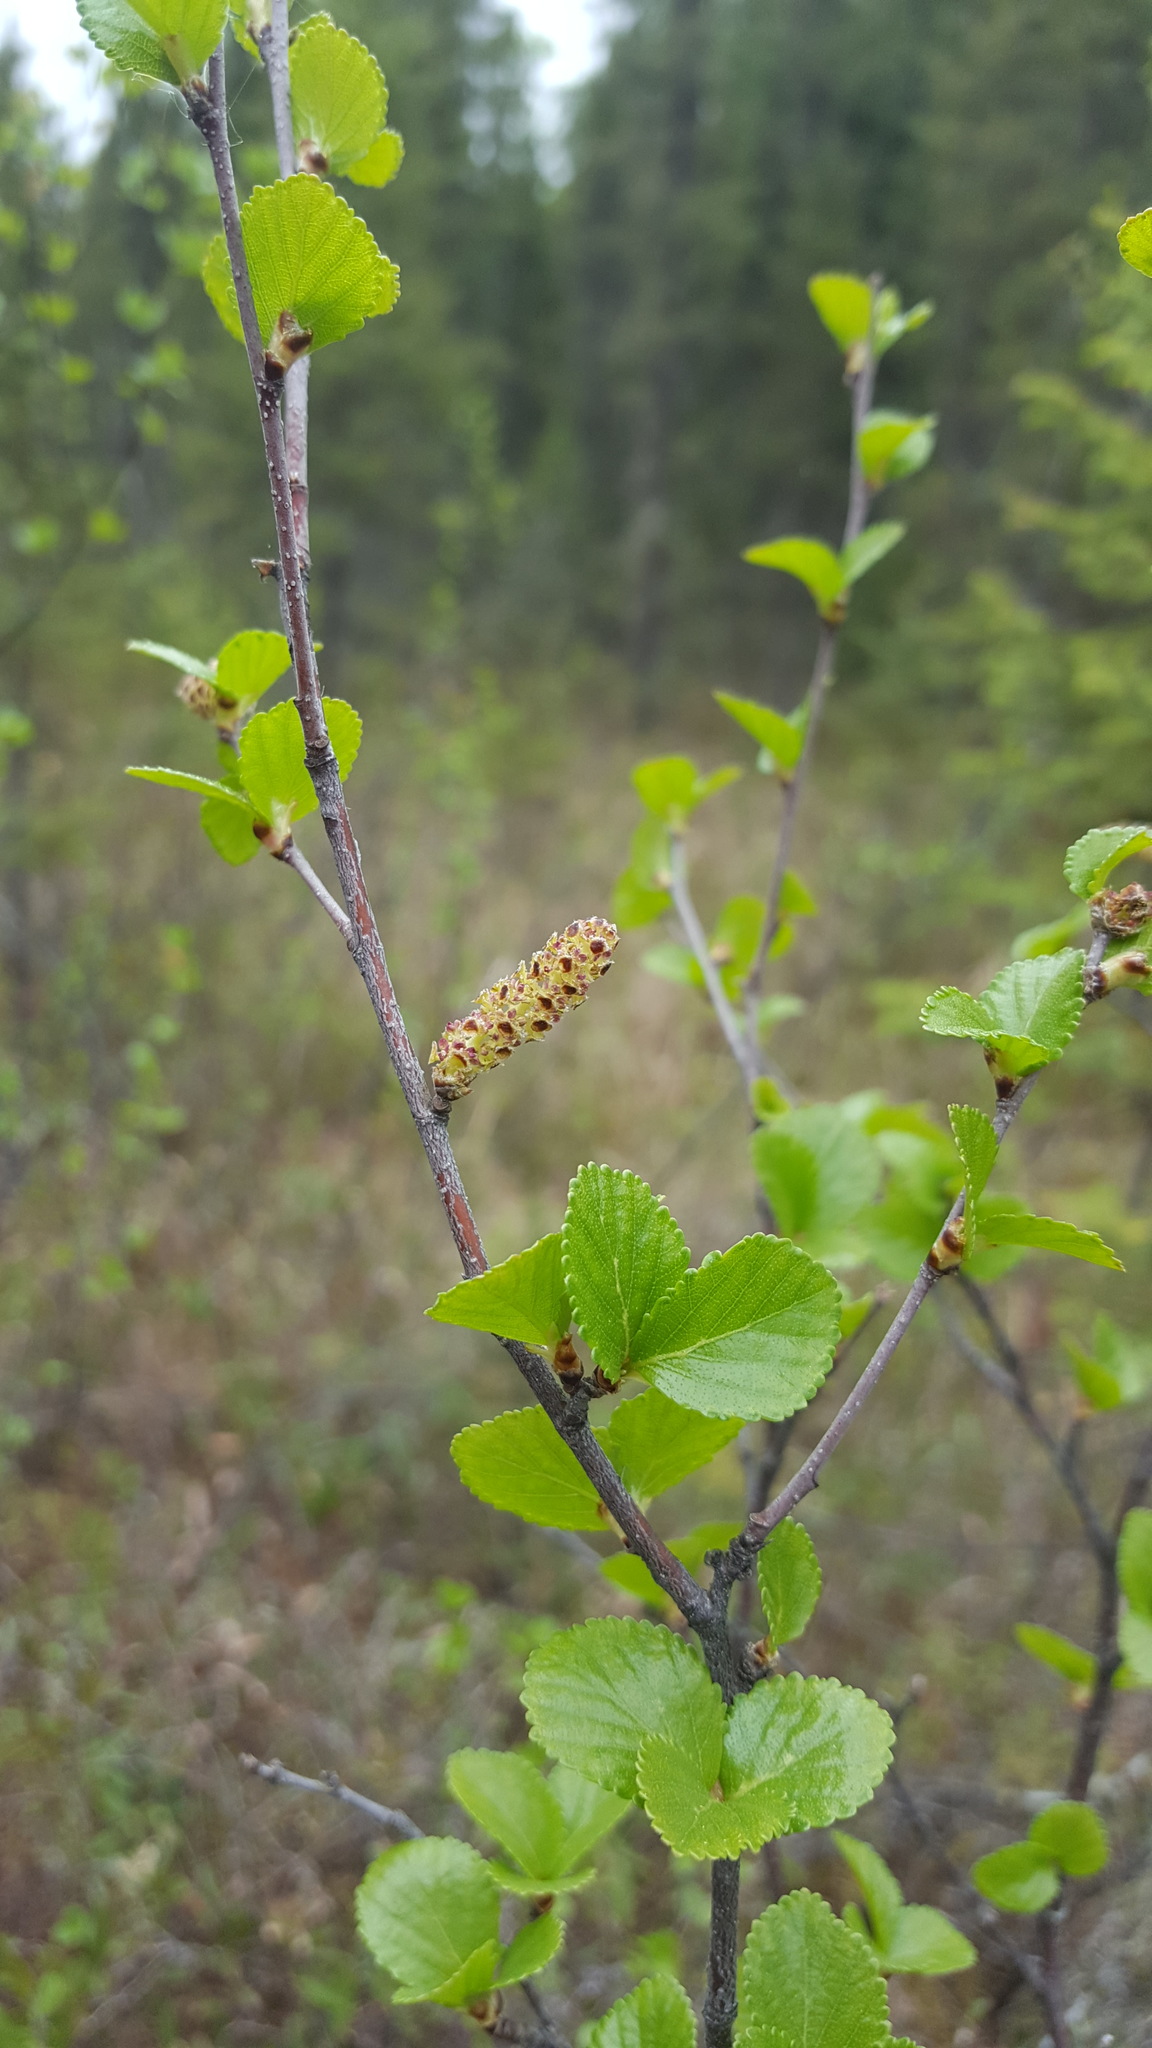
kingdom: Plantae
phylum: Tracheophyta
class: Magnoliopsida
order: Fagales
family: Betulaceae
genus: Betula
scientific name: Betula pumila
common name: Bog birch
